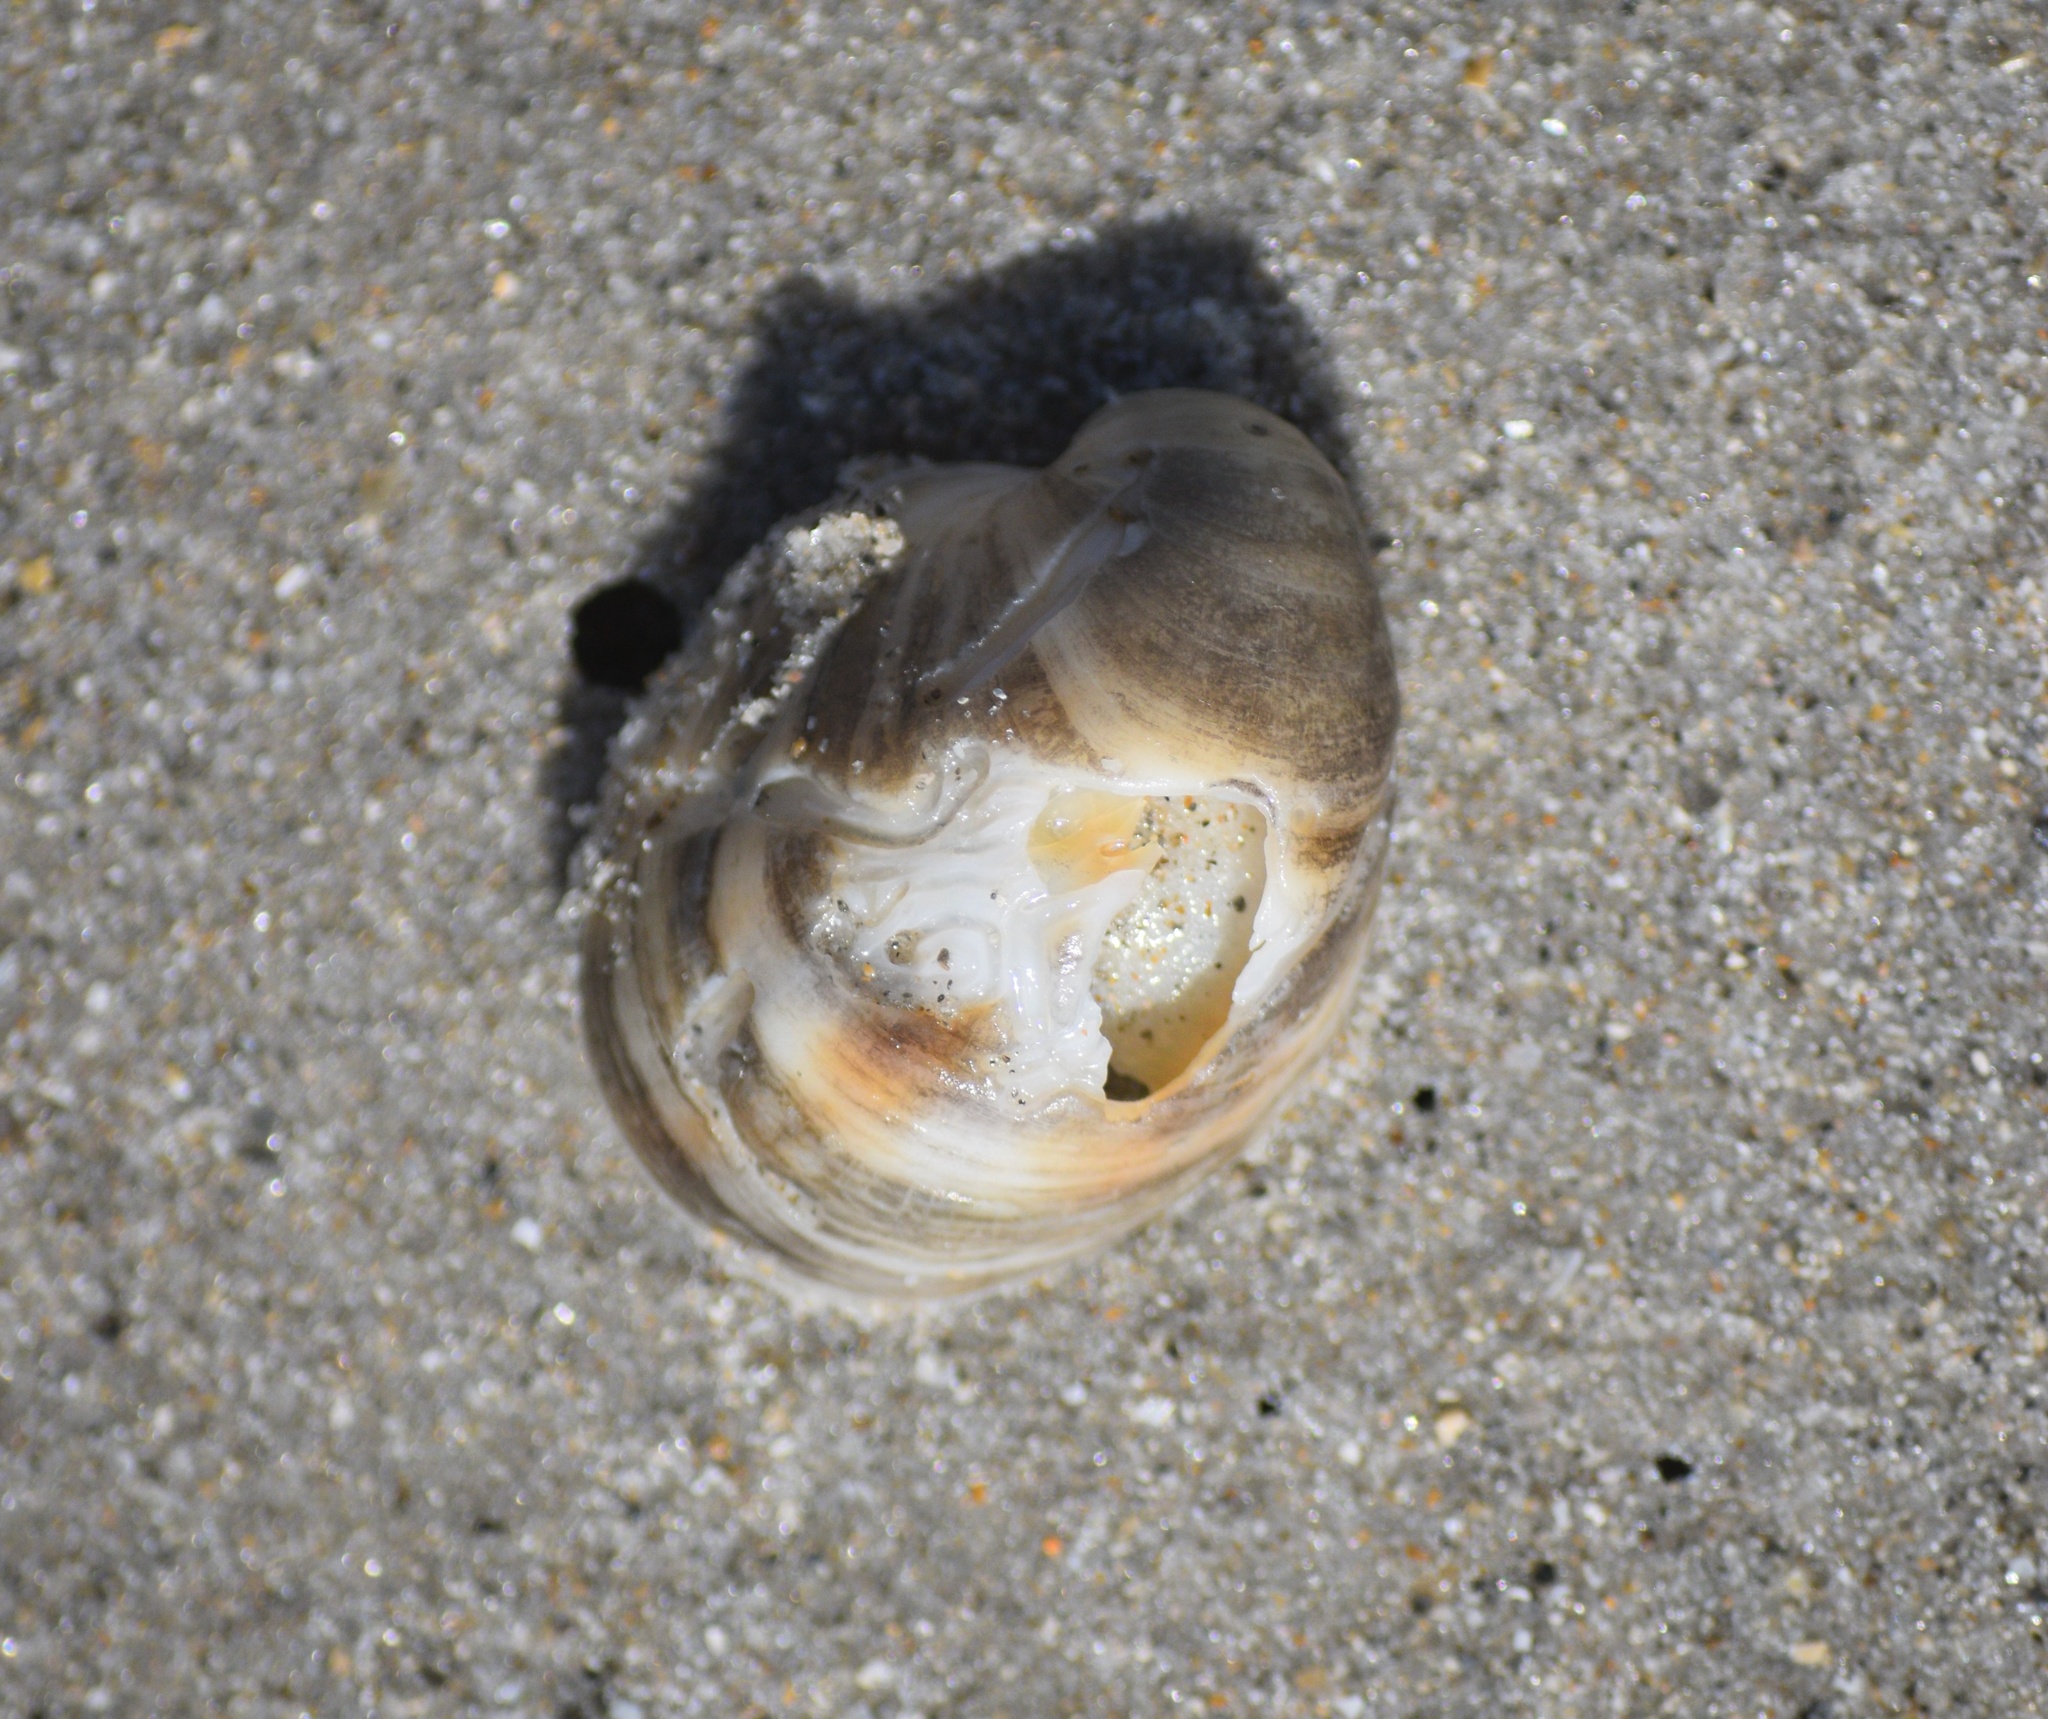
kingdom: Animalia
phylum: Mollusca
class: Gastropoda
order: Littorinimorpha
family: Calyptraeidae
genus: Crepidula
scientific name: Crepidula fornicata
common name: Slipper limpet
